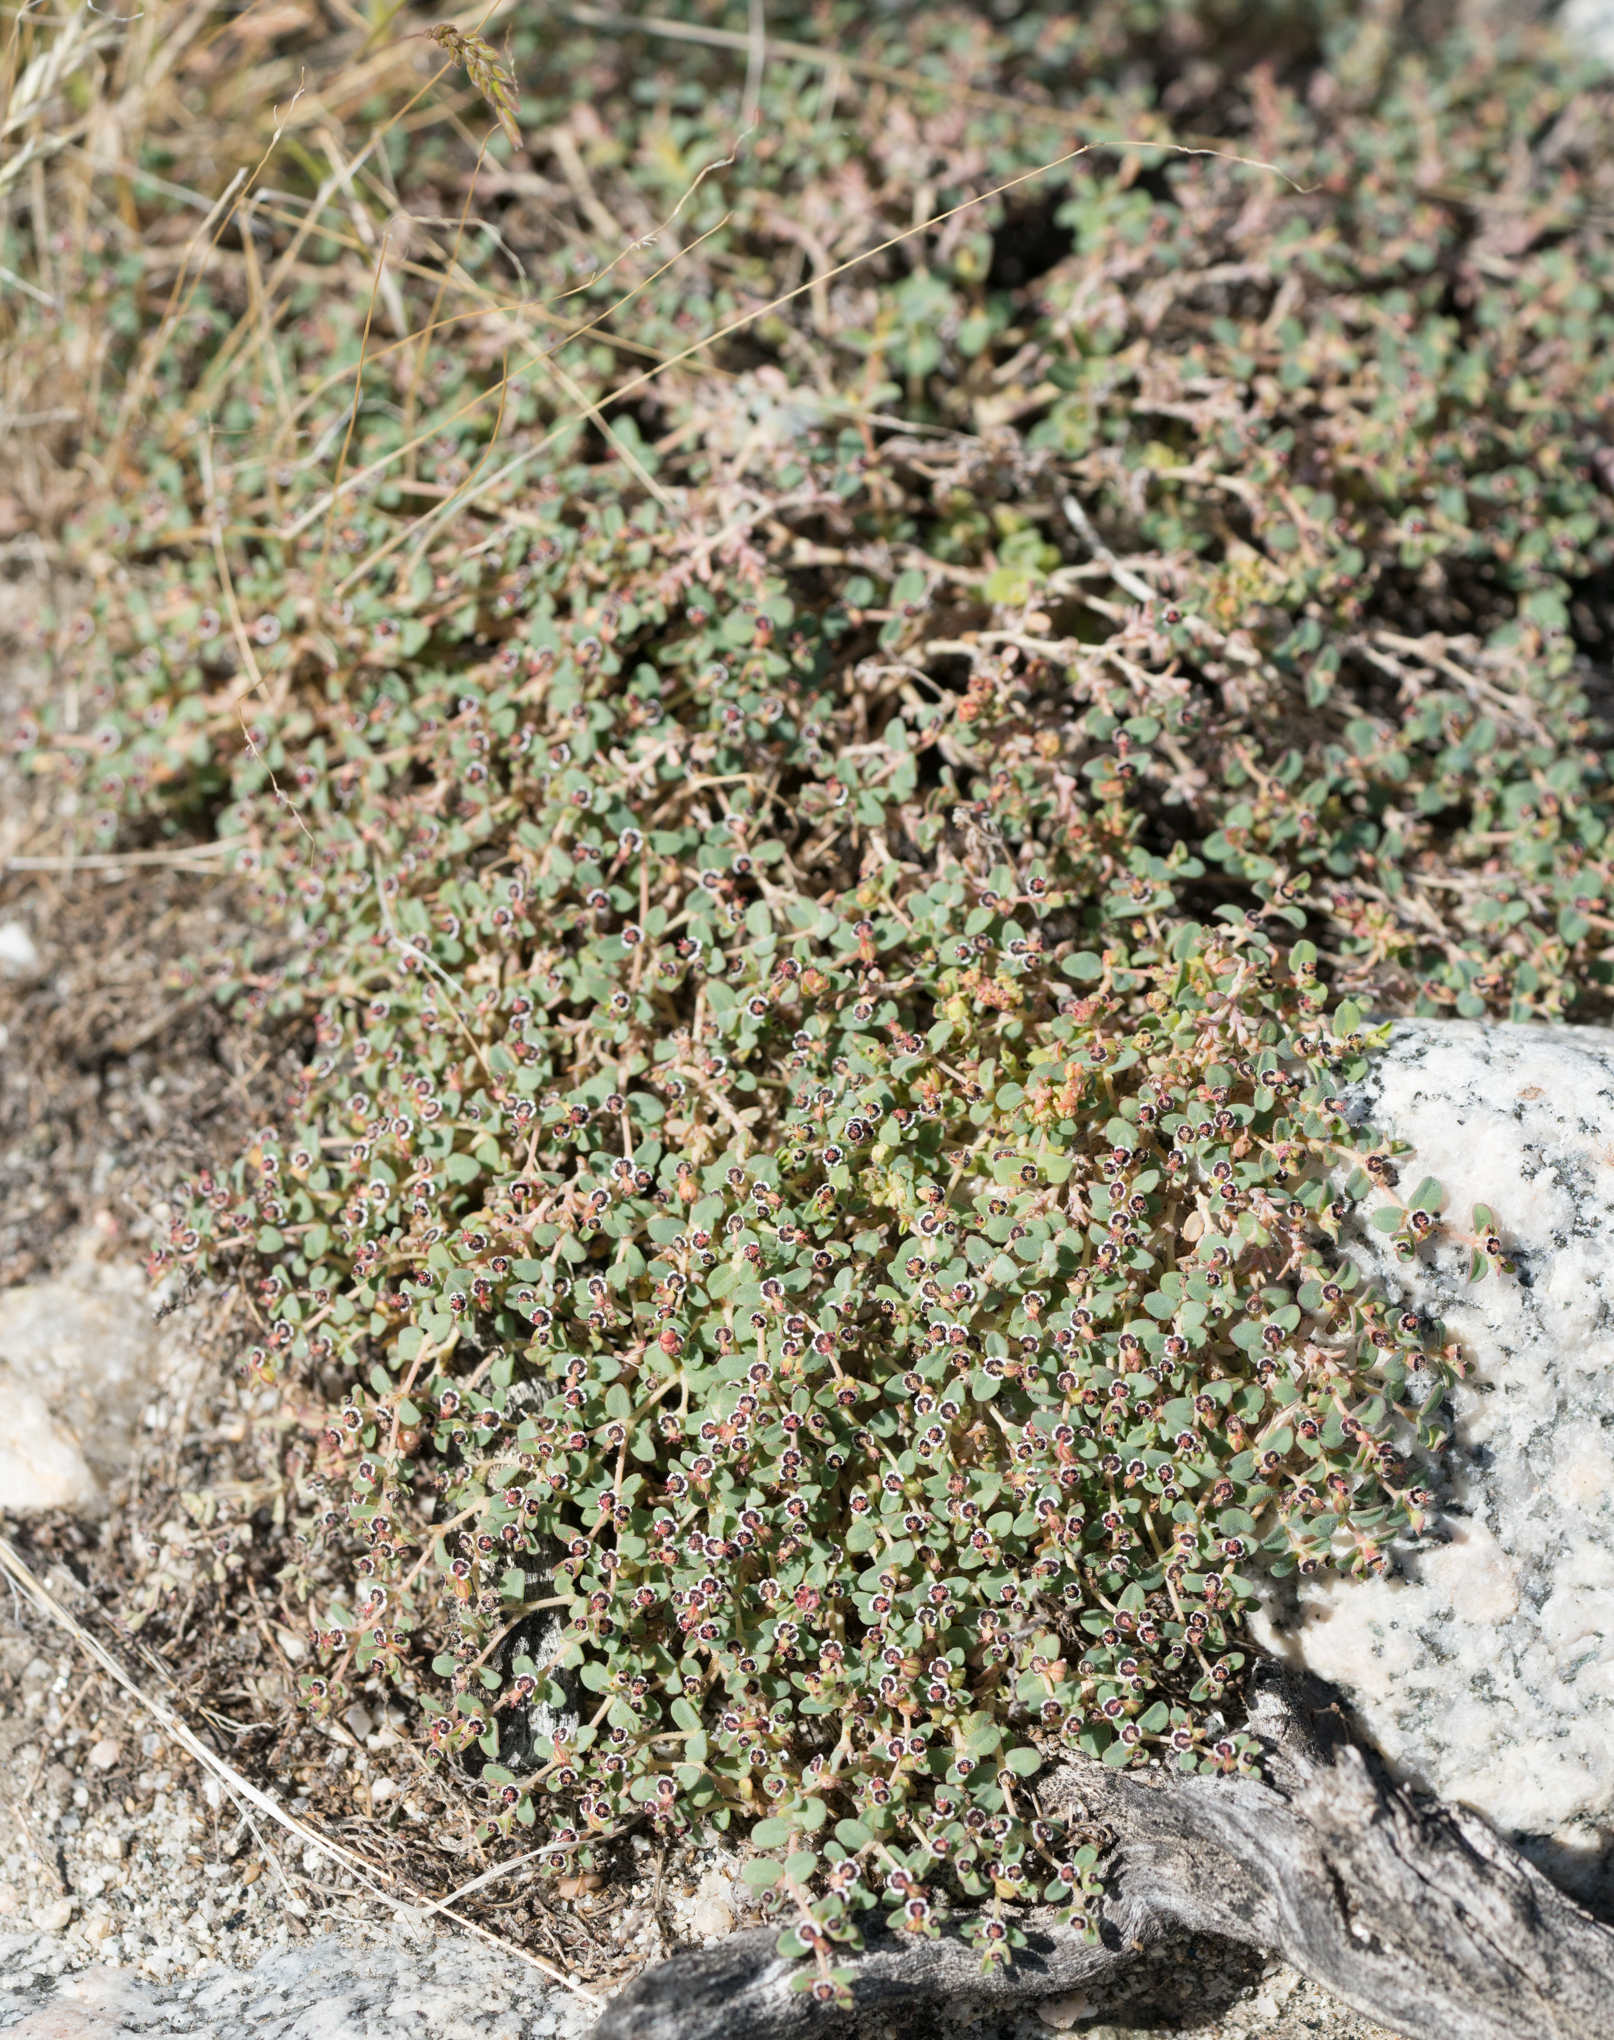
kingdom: Plantae
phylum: Tracheophyta
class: Magnoliopsida
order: Malpighiales
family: Euphorbiaceae
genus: Euphorbia
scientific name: Euphorbia polycarpa
